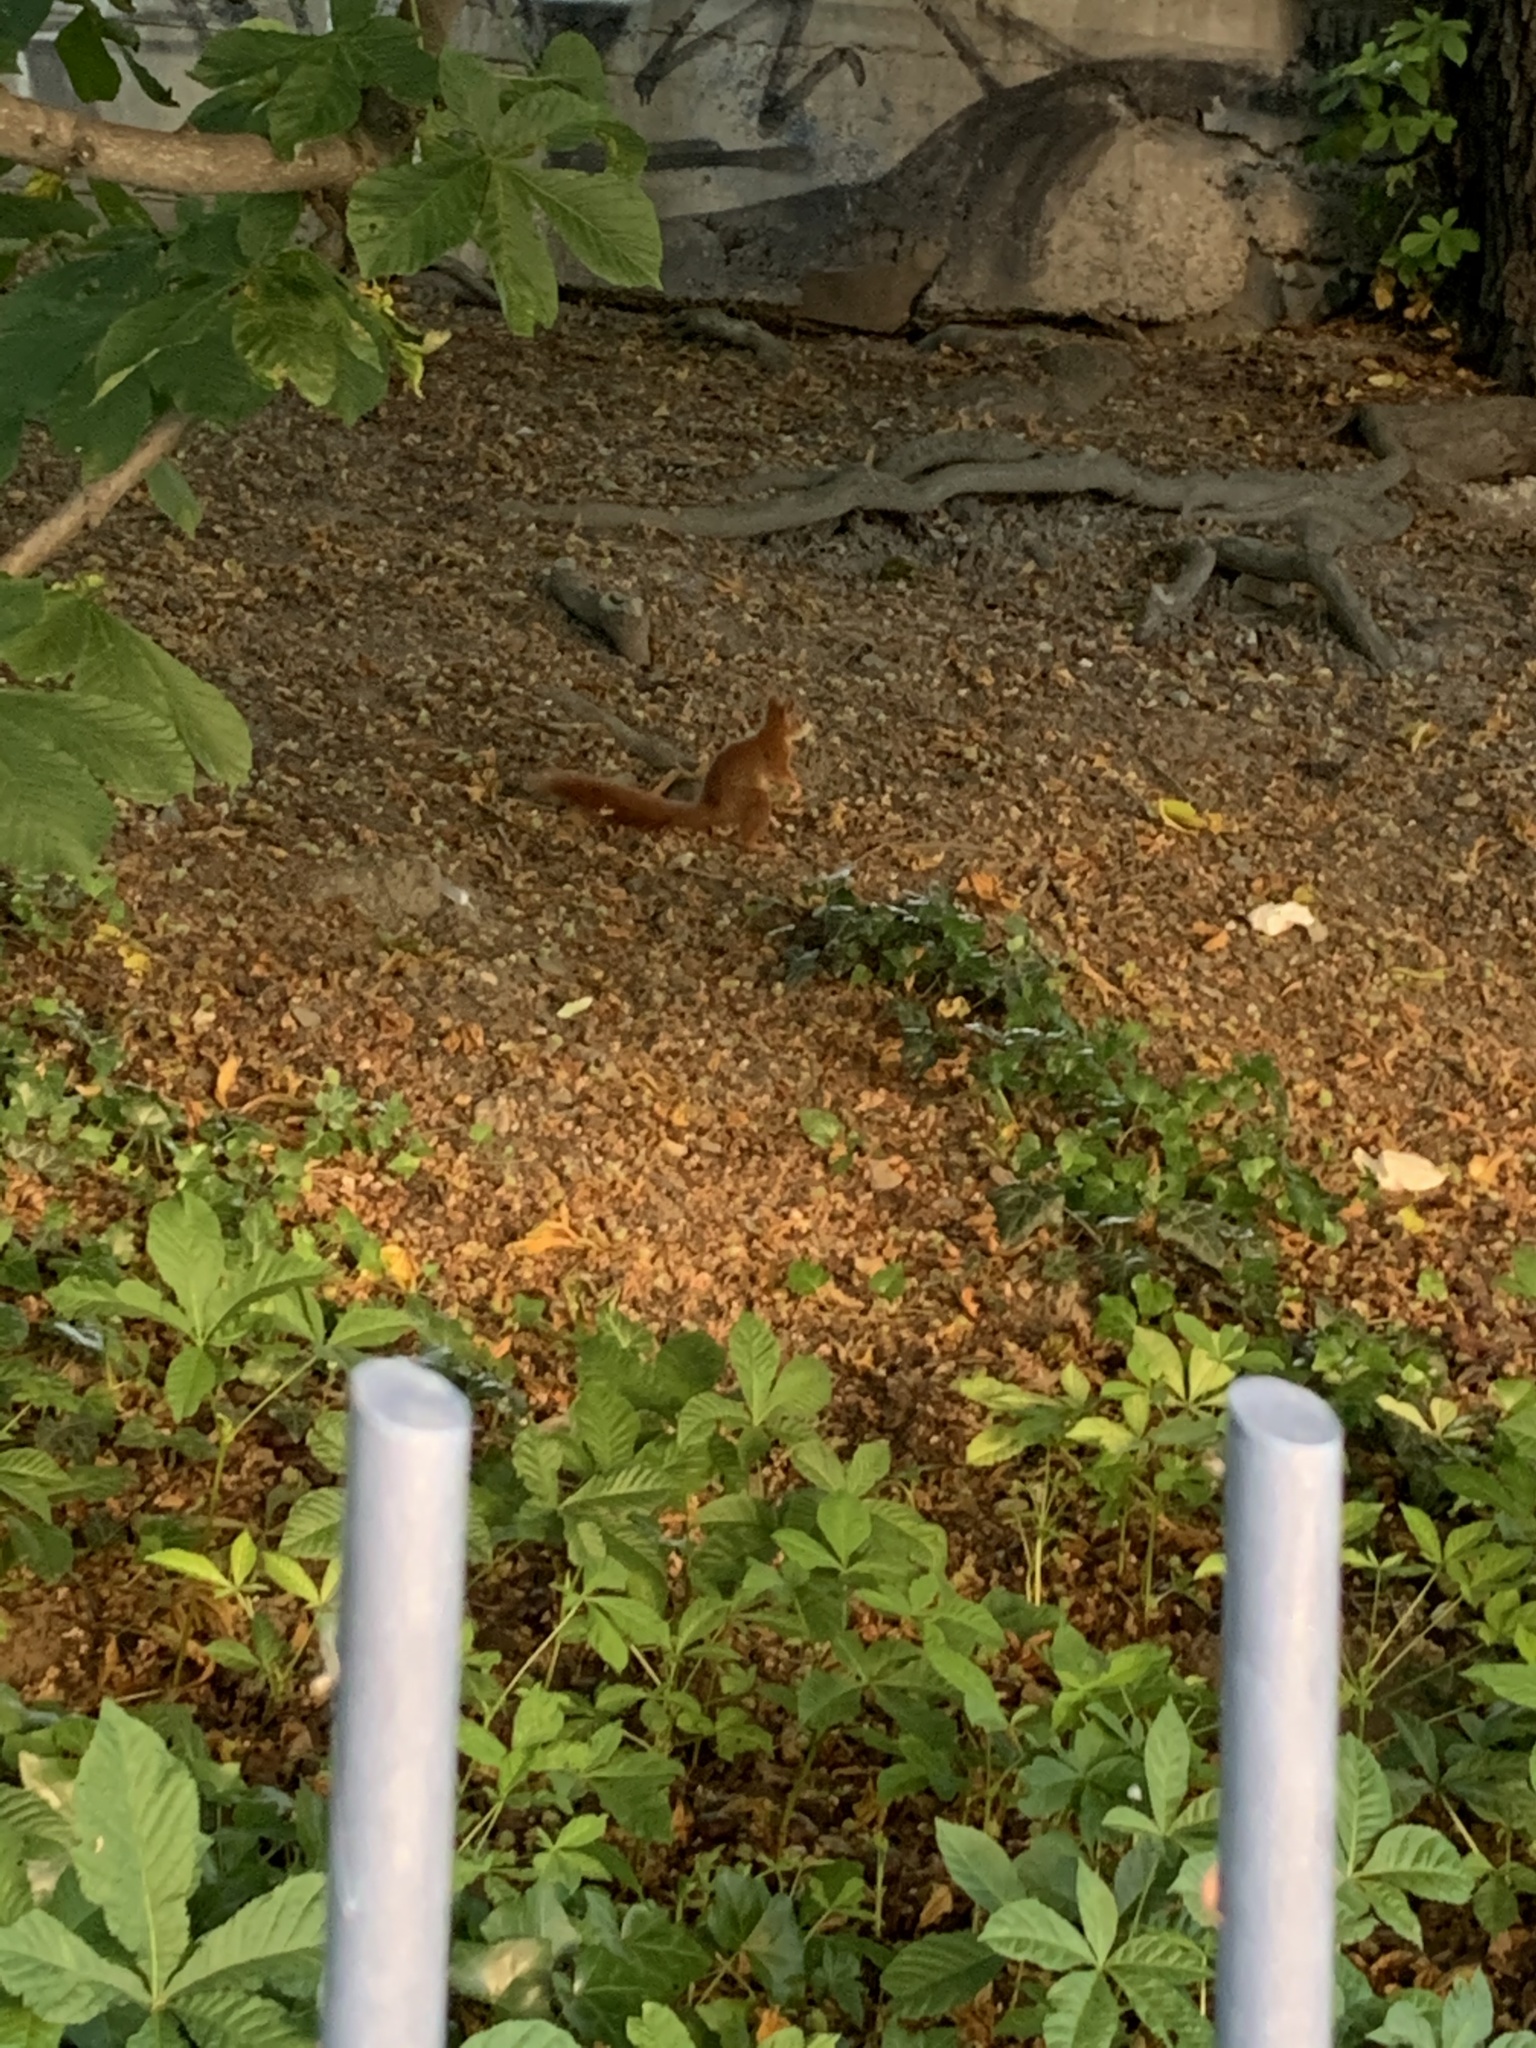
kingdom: Animalia
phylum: Chordata
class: Mammalia
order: Rodentia
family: Sciuridae
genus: Sciurus
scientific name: Sciurus vulgaris
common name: Eurasian red squirrel
